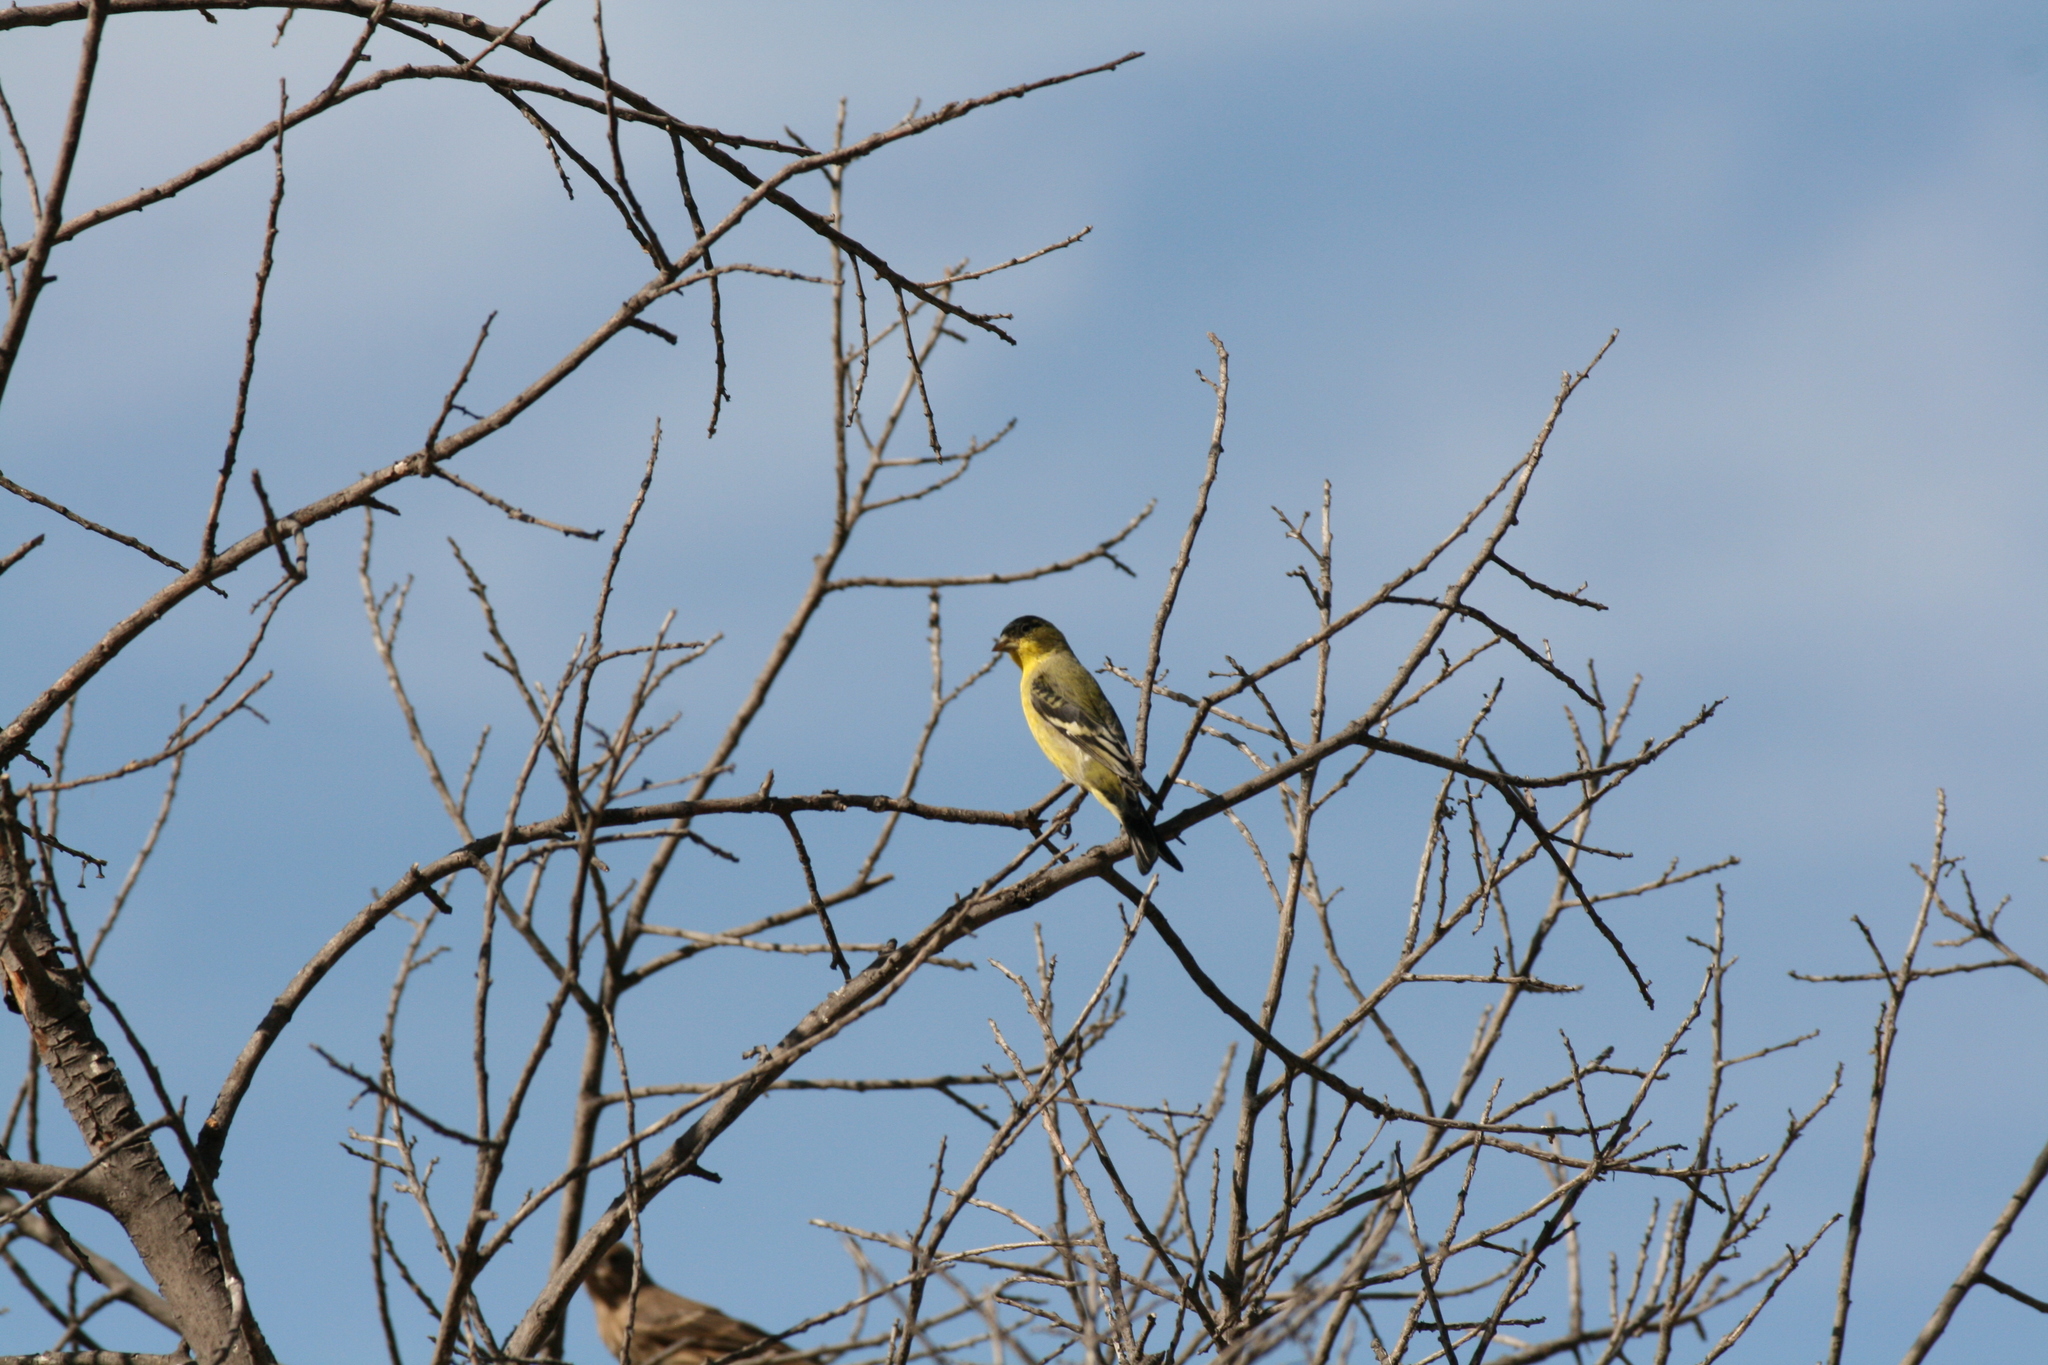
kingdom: Animalia
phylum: Chordata
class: Aves
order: Passeriformes
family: Fringillidae
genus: Spinus
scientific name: Spinus psaltria
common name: Lesser goldfinch
